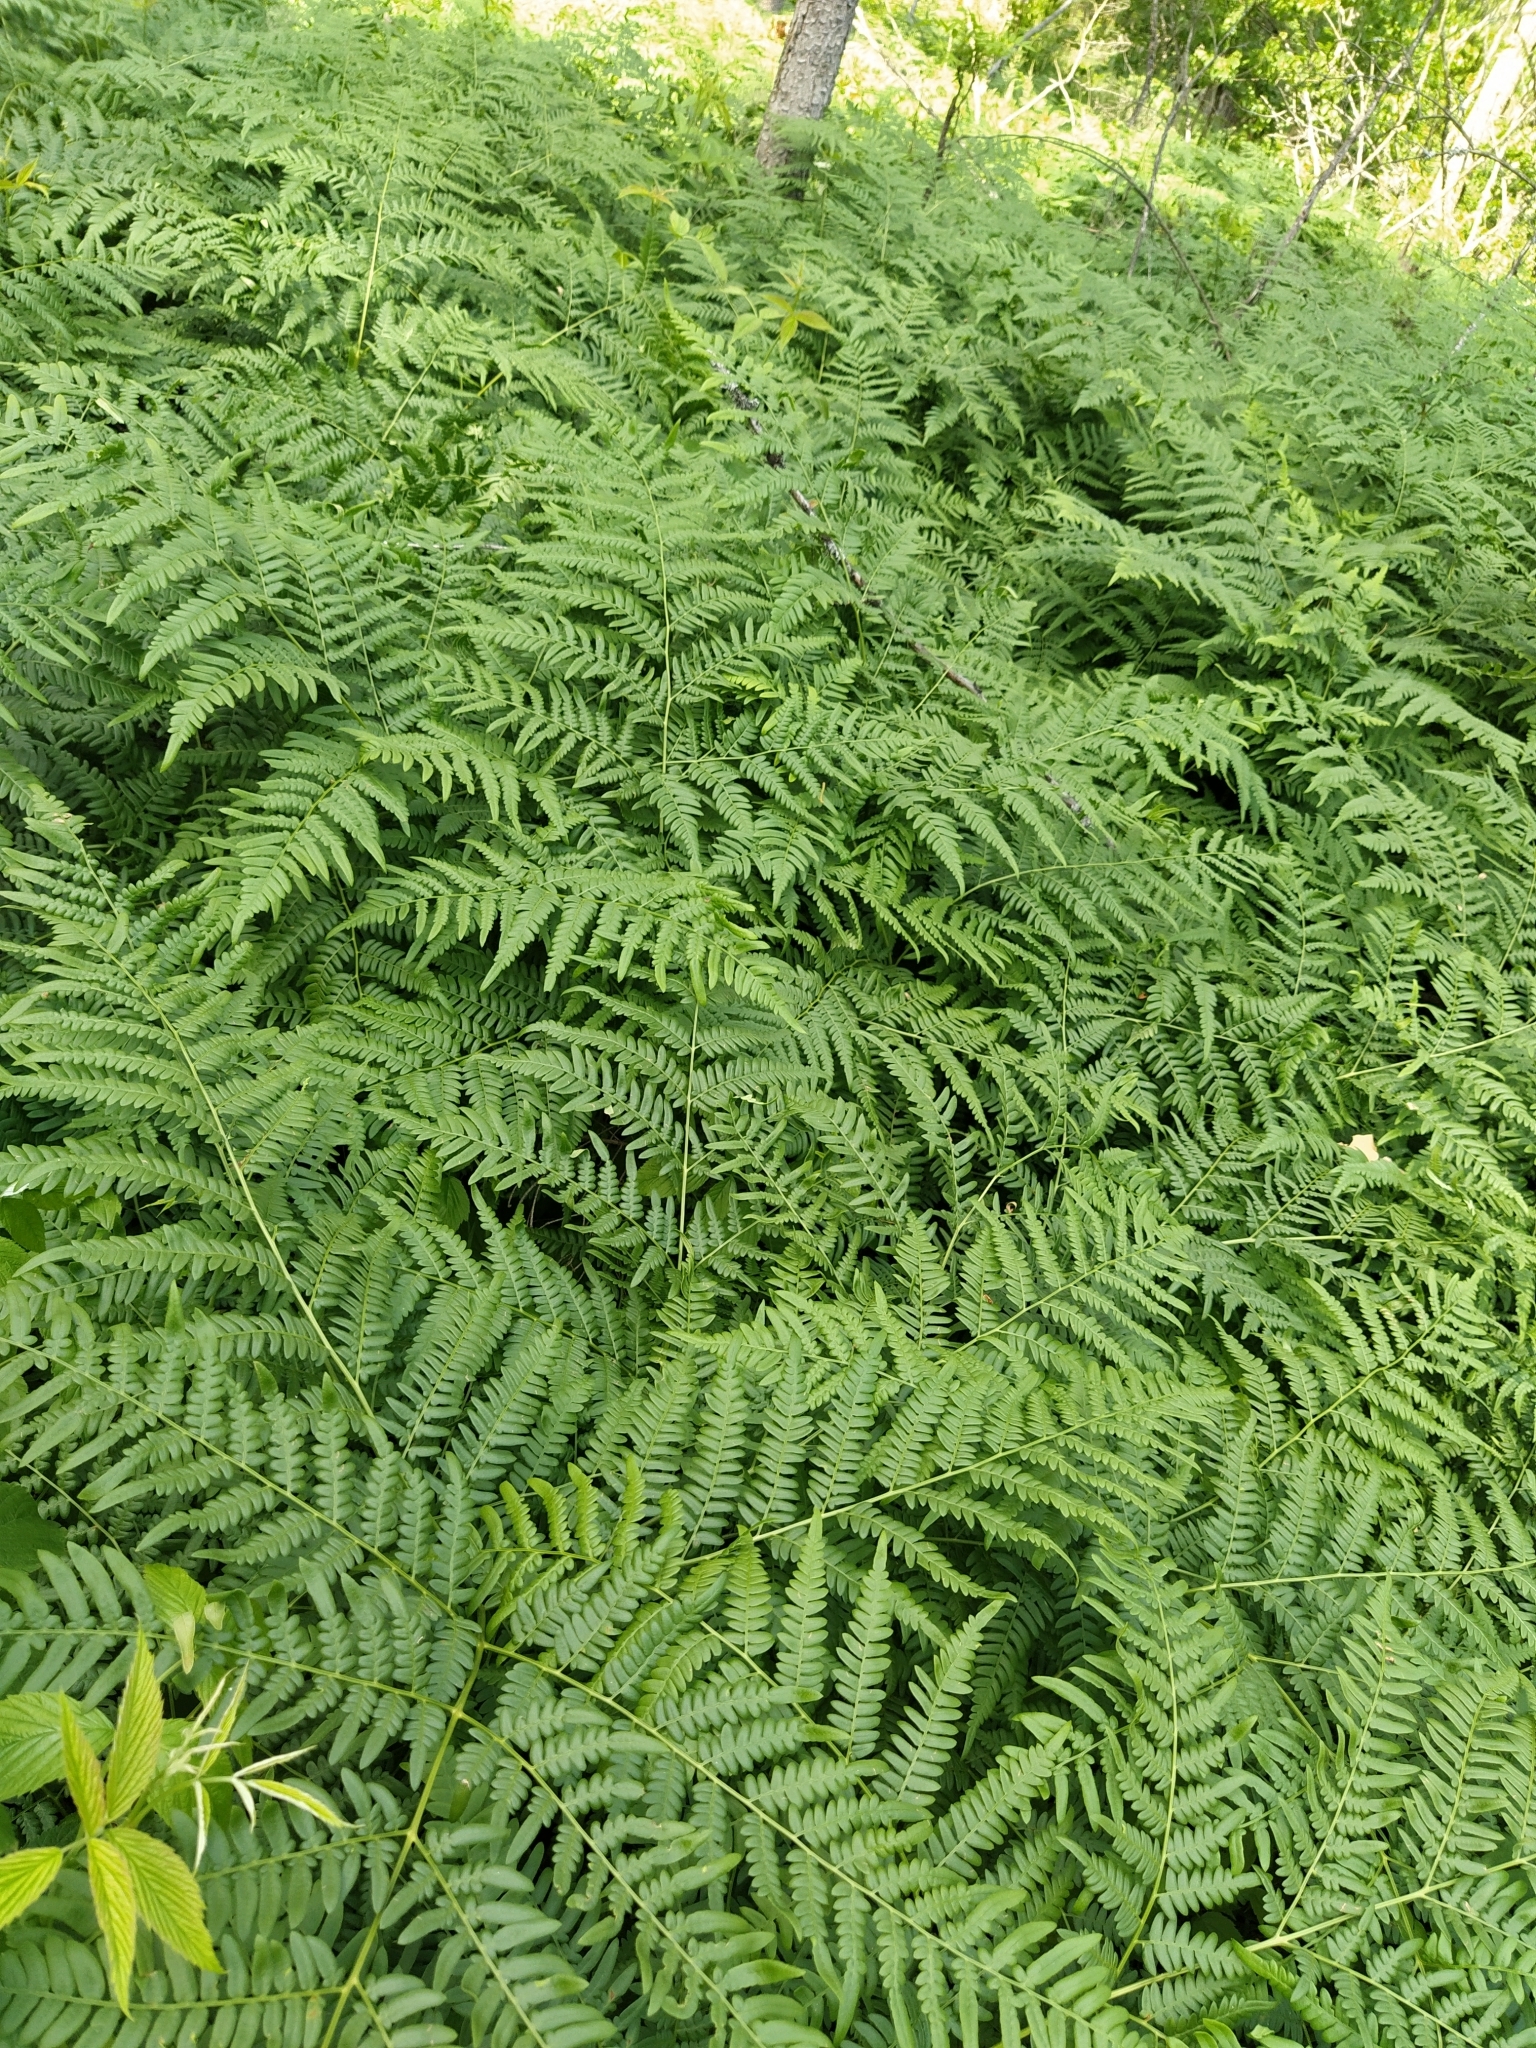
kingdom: Plantae
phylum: Tracheophyta
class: Polypodiopsida
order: Polypodiales
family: Dennstaedtiaceae
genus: Pteridium
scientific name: Pteridium aquilinum
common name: Bracken
